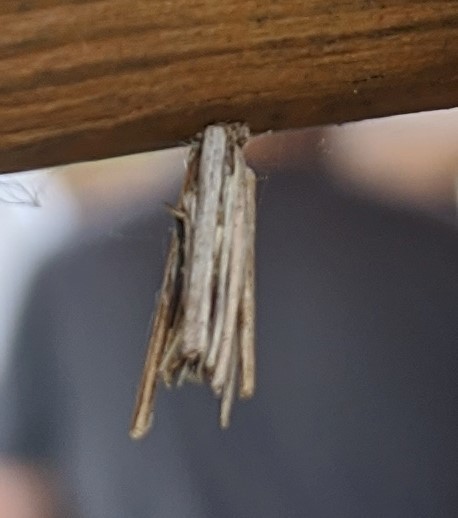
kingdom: Animalia
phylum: Arthropoda
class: Insecta
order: Lepidoptera
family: Psychidae
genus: Psyche
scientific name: Psyche casta
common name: Common sweep
